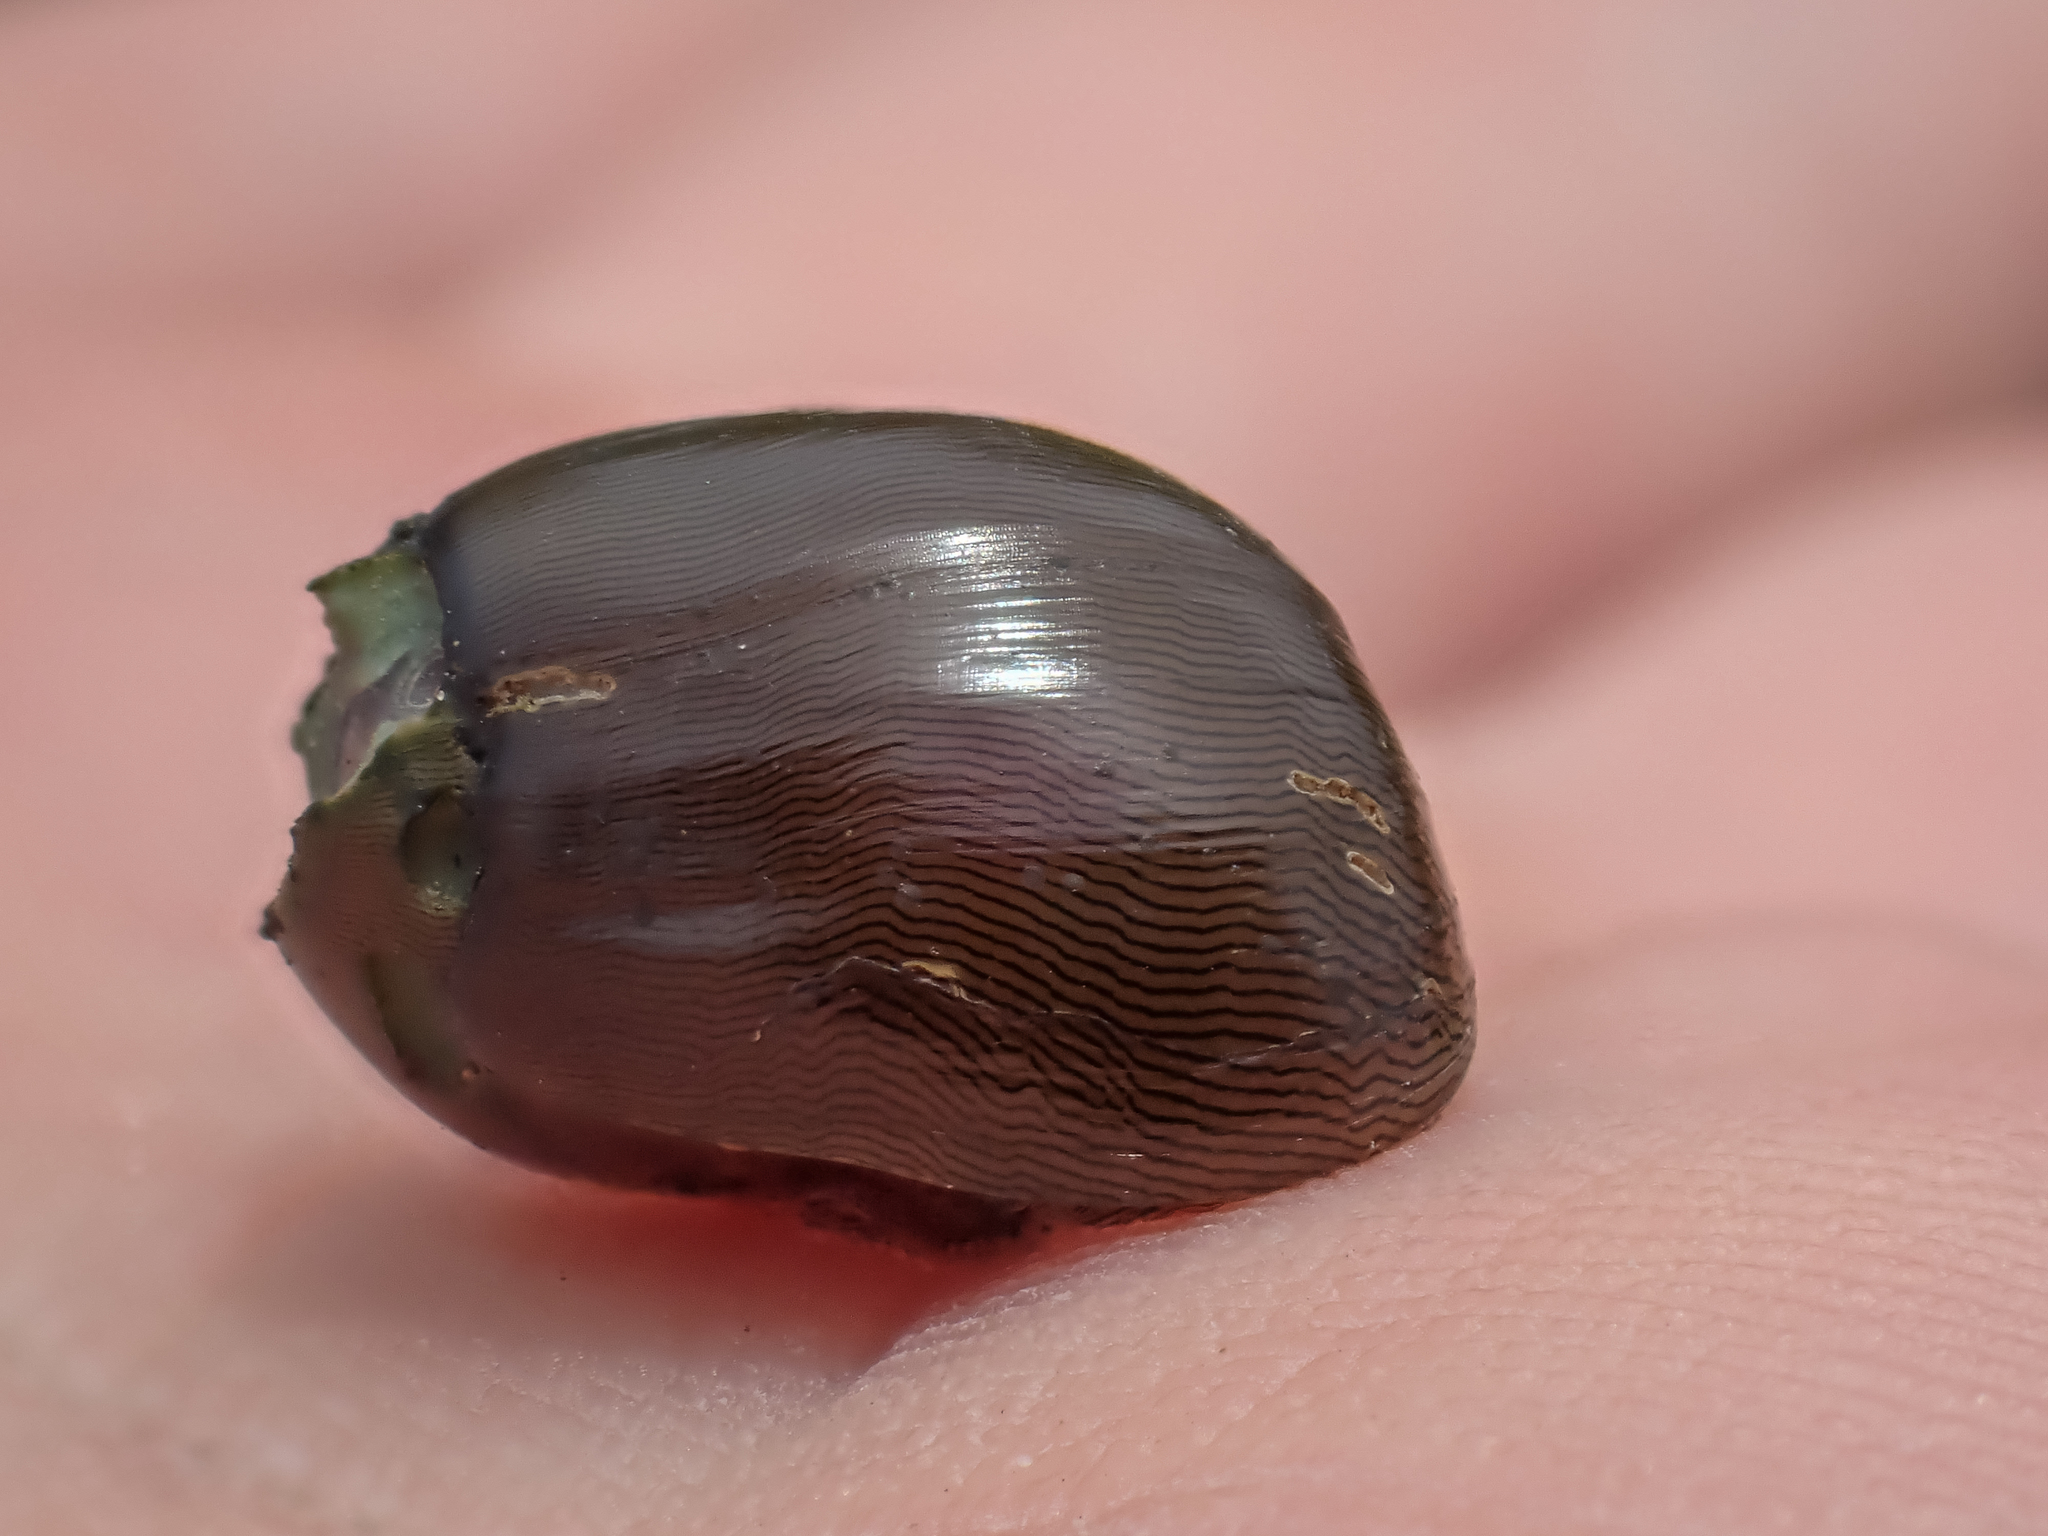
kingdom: Animalia
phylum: Mollusca
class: Gastropoda
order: Cycloneritida
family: Neritidae
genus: Vitta
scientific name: Vitta usnea
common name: Olive nerite
